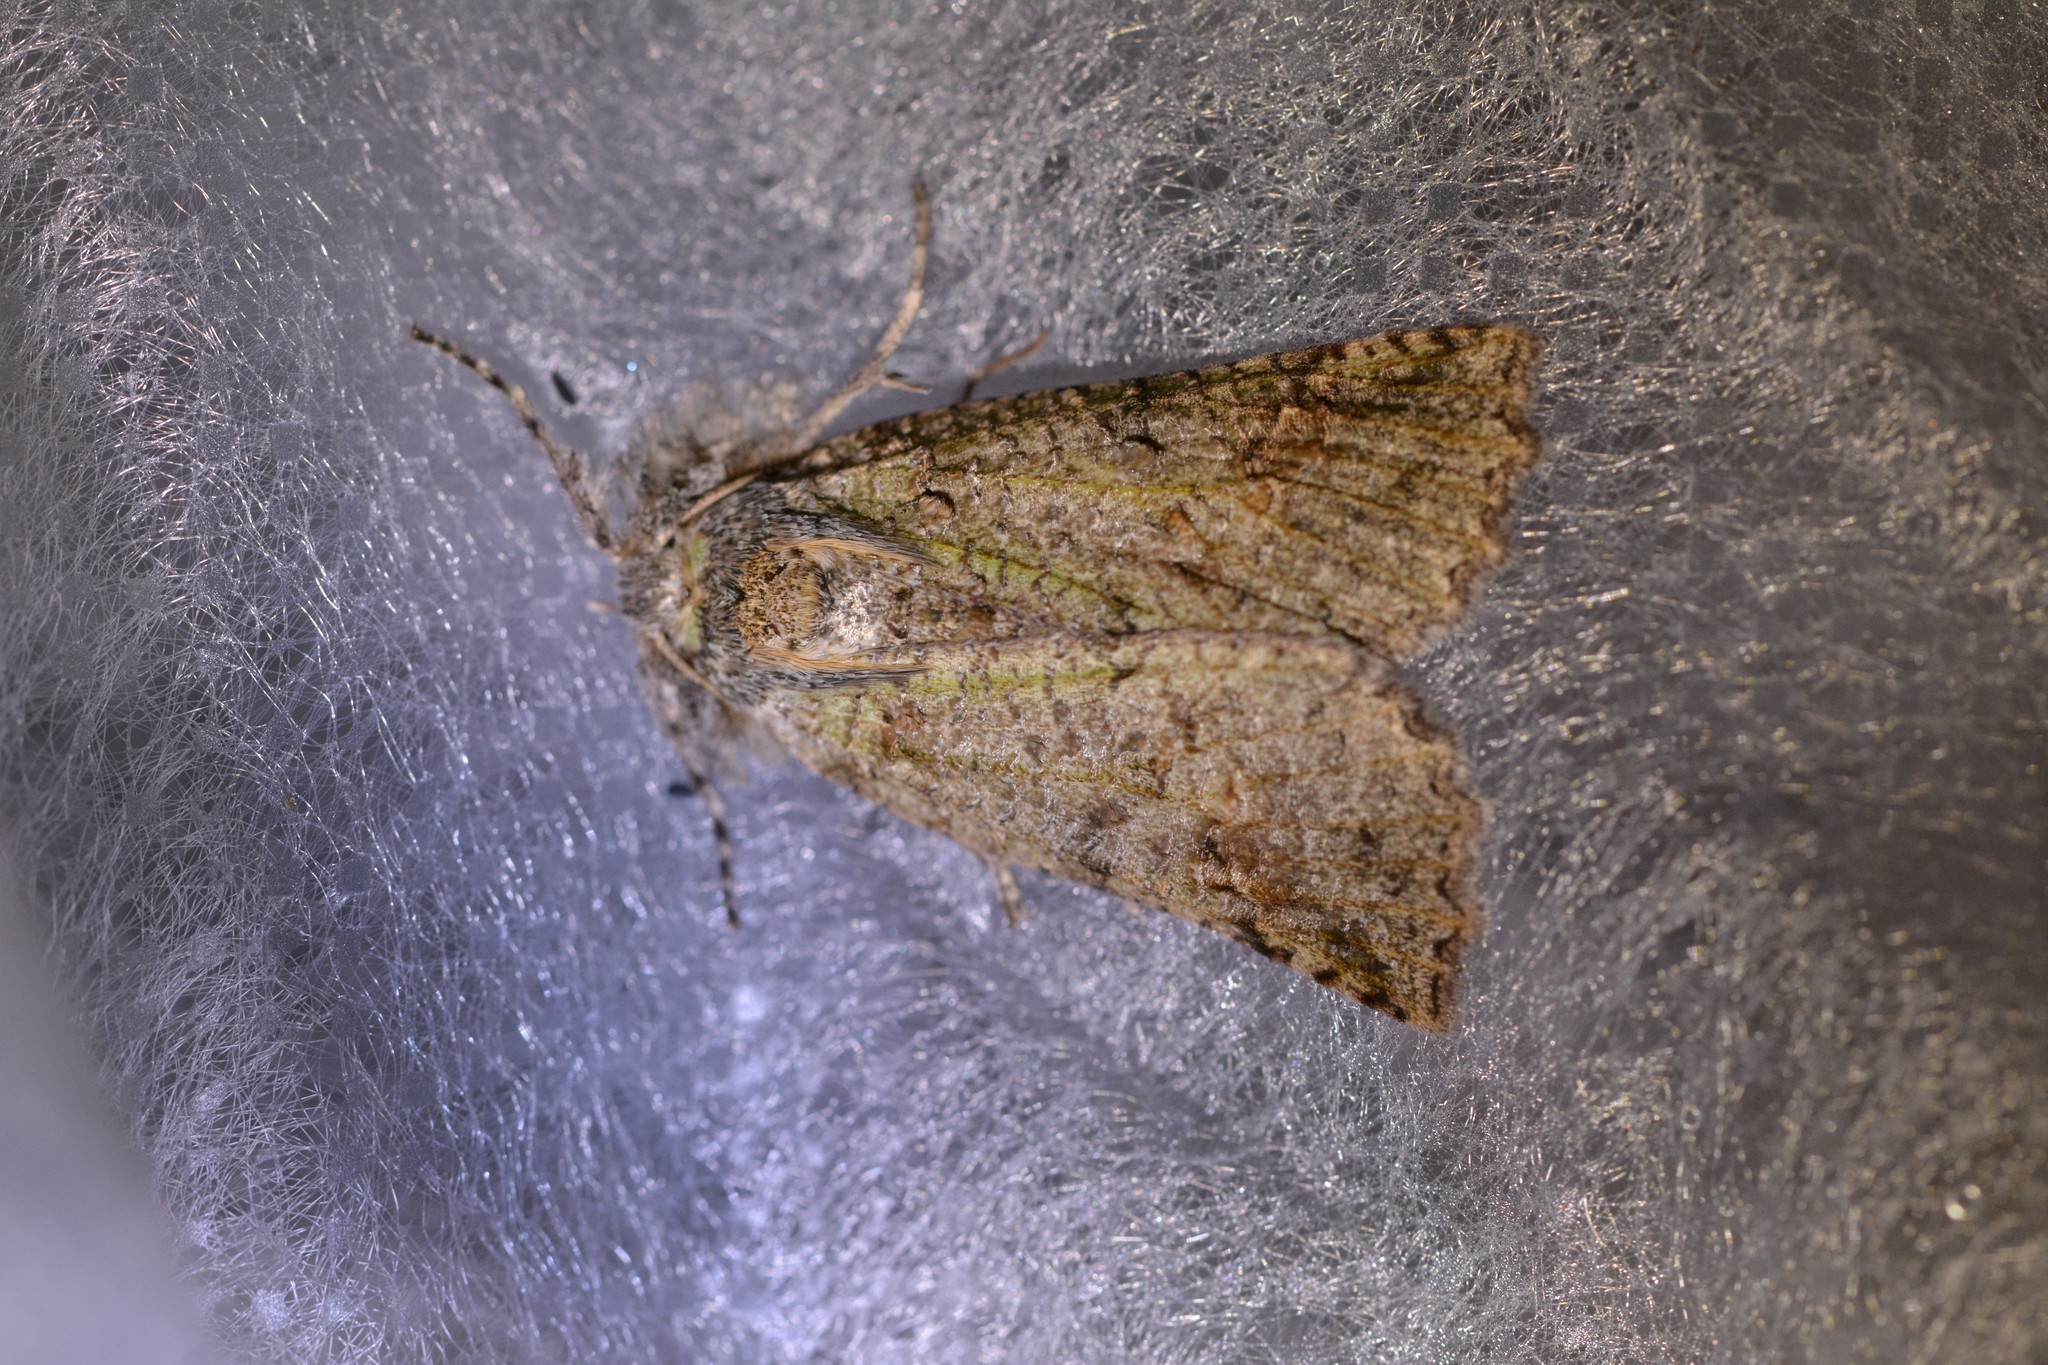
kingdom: Animalia
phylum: Arthropoda
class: Insecta
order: Lepidoptera
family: Geometridae
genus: Declana
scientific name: Declana floccosa
